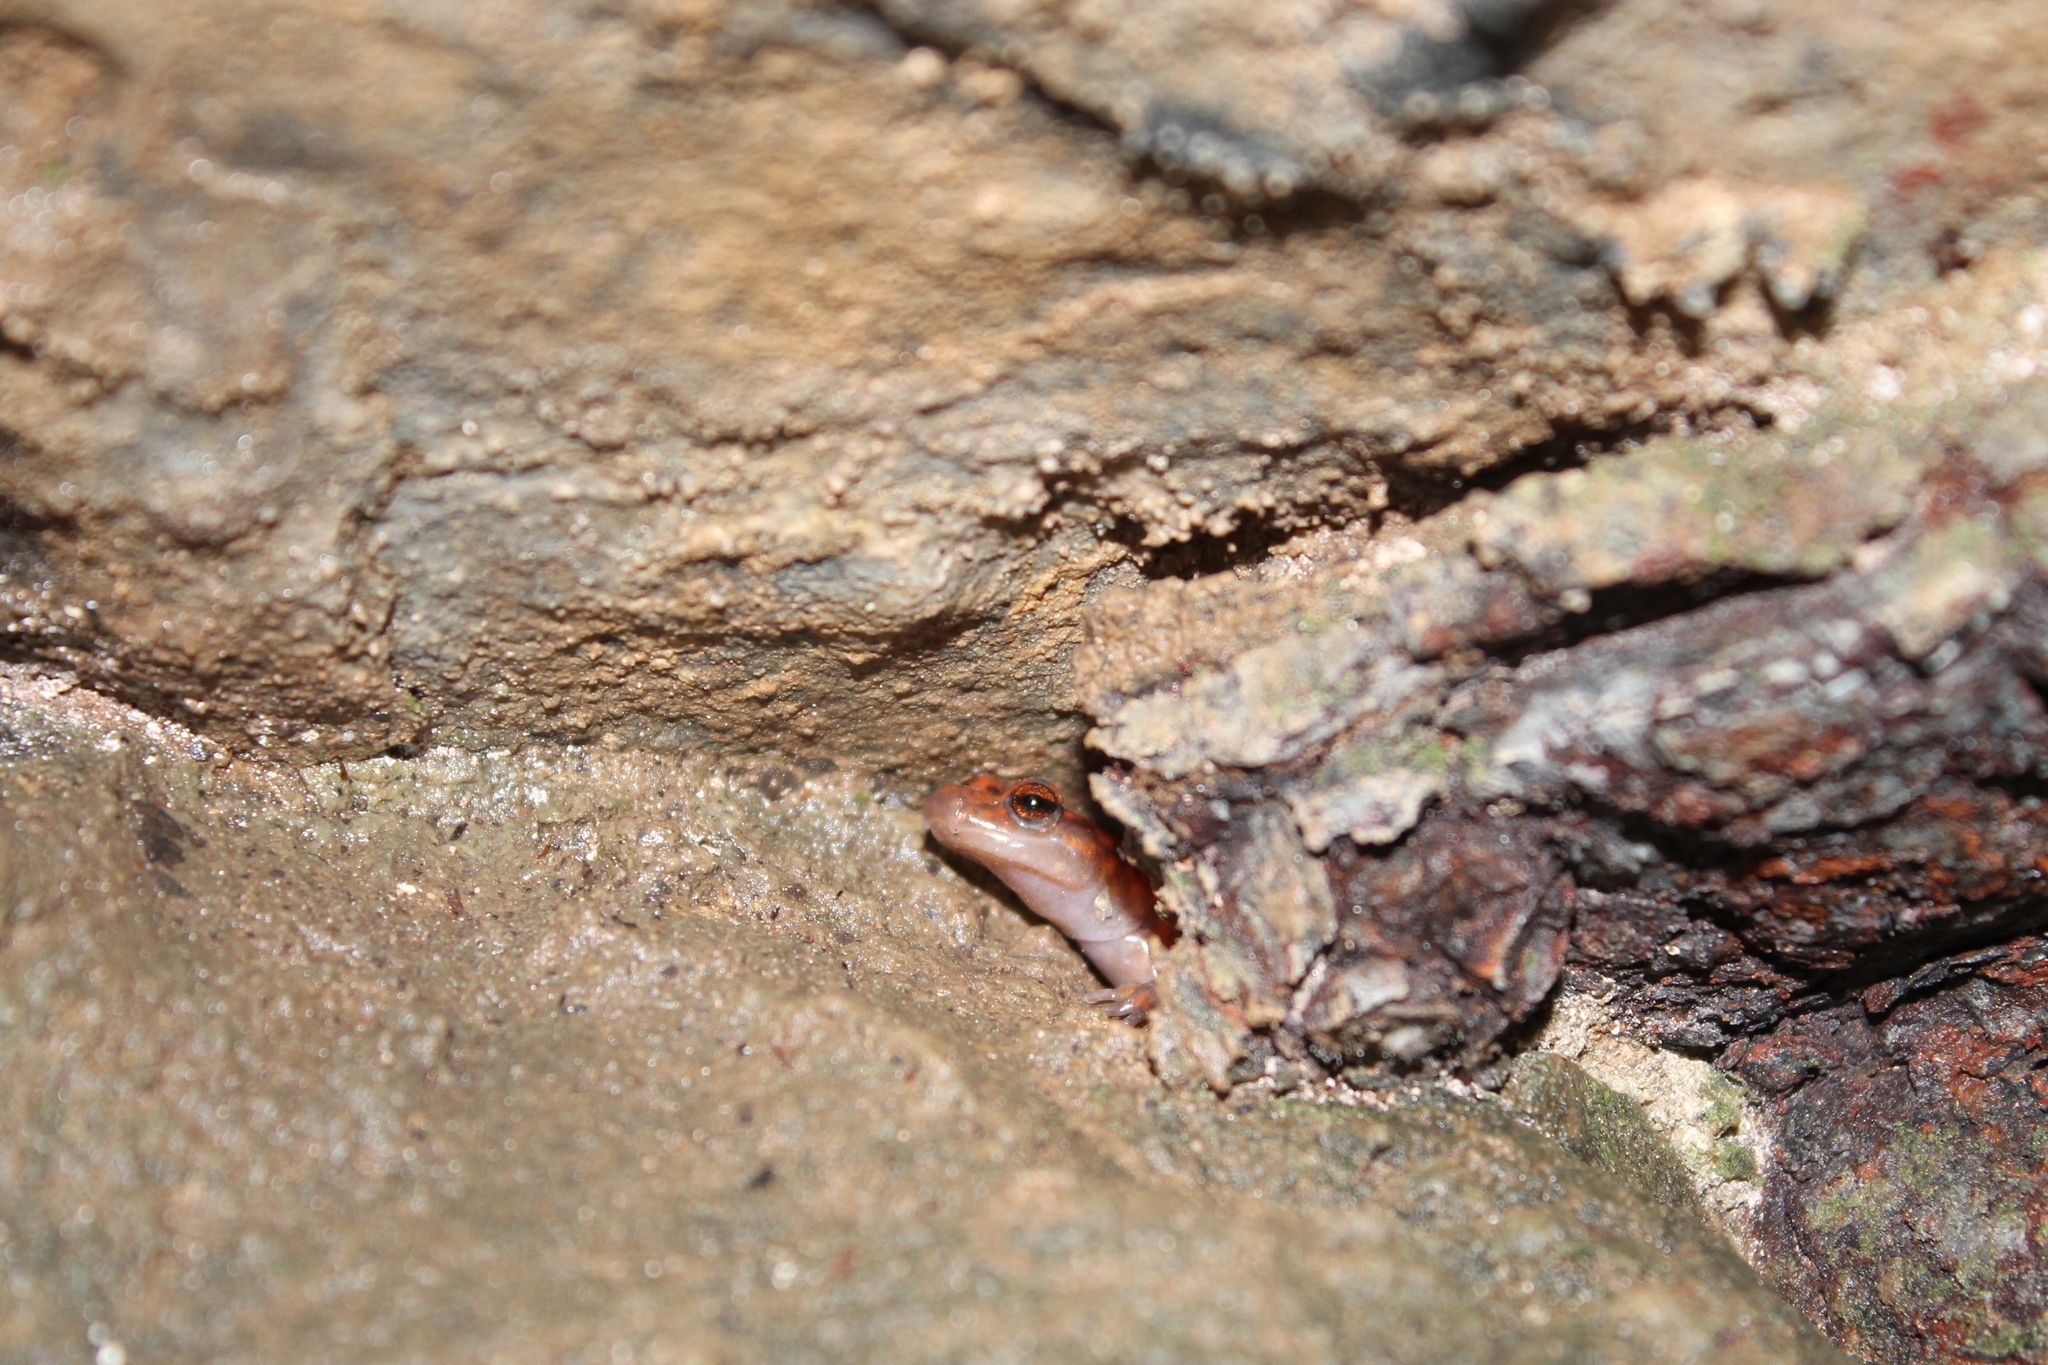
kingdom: Animalia
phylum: Chordata
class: Amphibia
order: Caudata
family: Plethodontidae
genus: Eurycea
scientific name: Eurycea lucifuga
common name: Cave salamander
